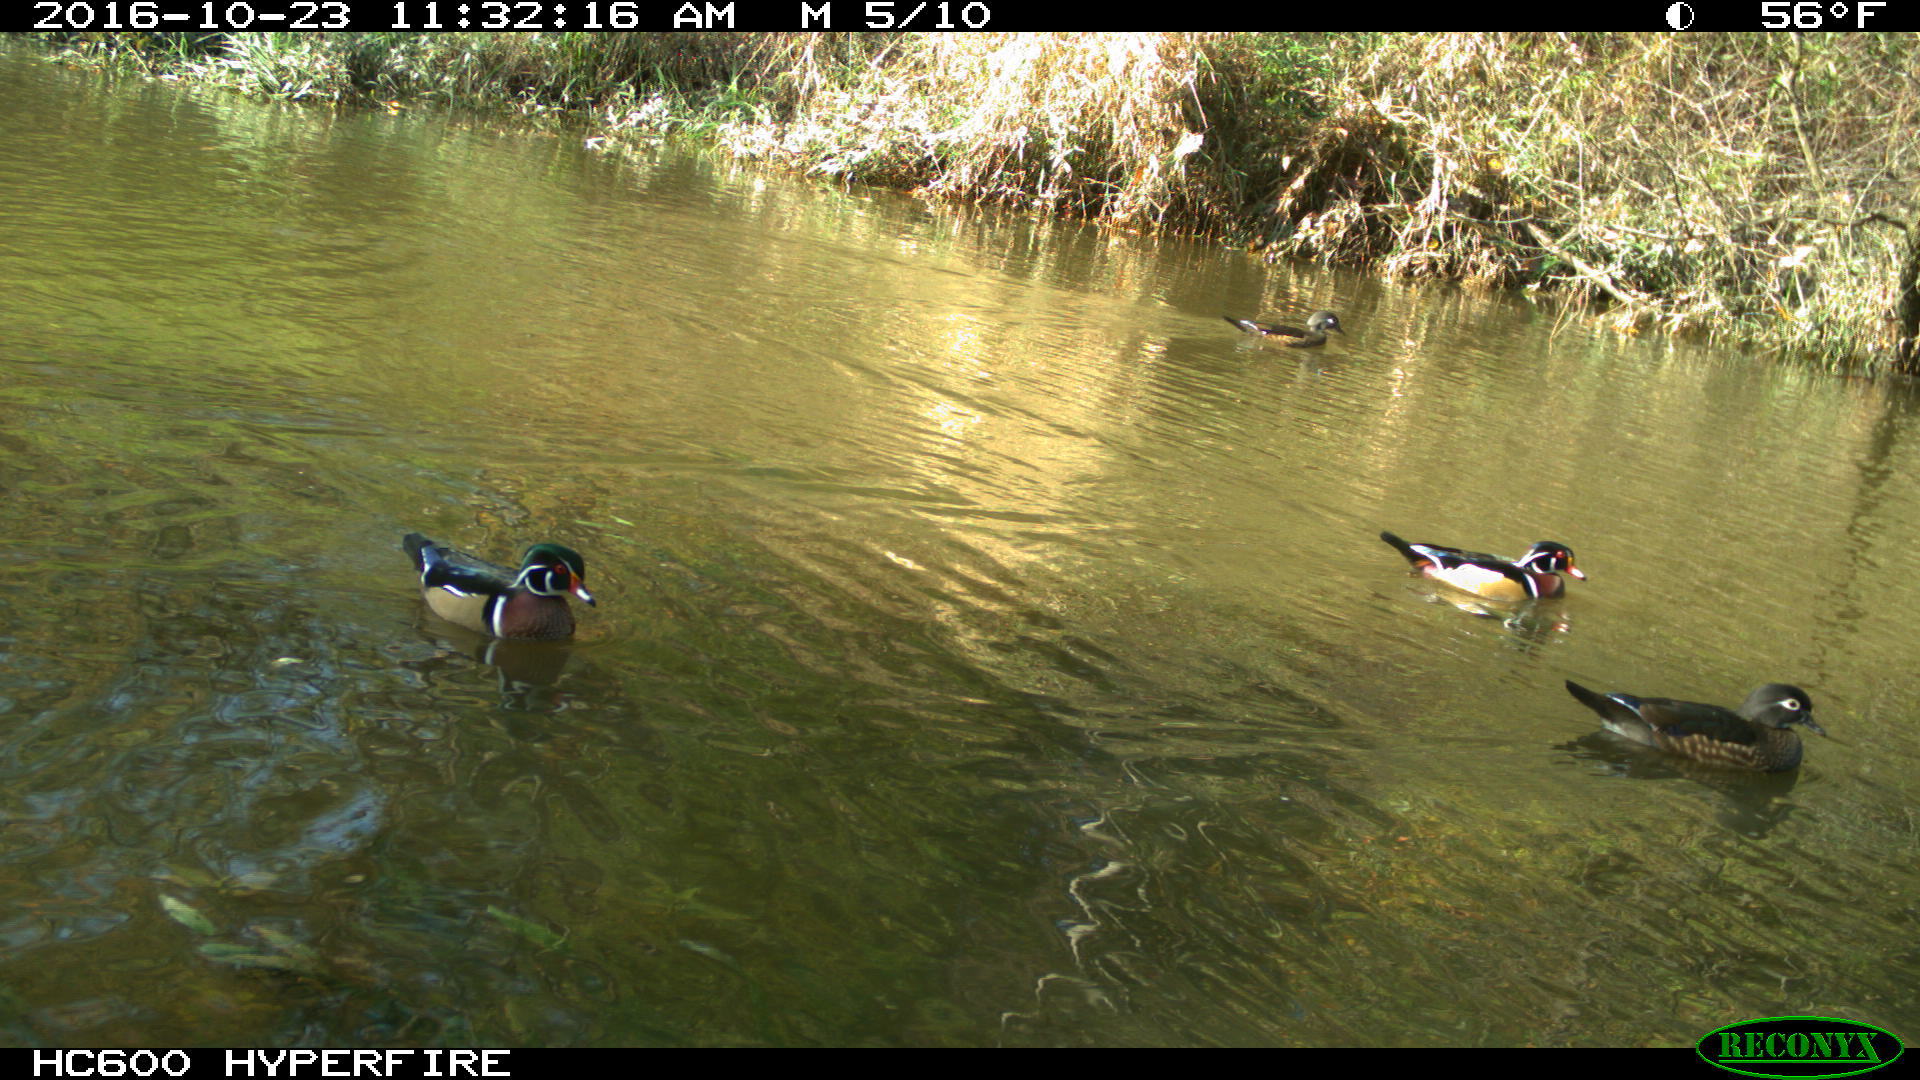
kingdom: Animalia
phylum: Chordata
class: Aves
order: Anseriformes
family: Anatidae
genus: Aix
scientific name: Aix sponsa
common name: Wood duck
